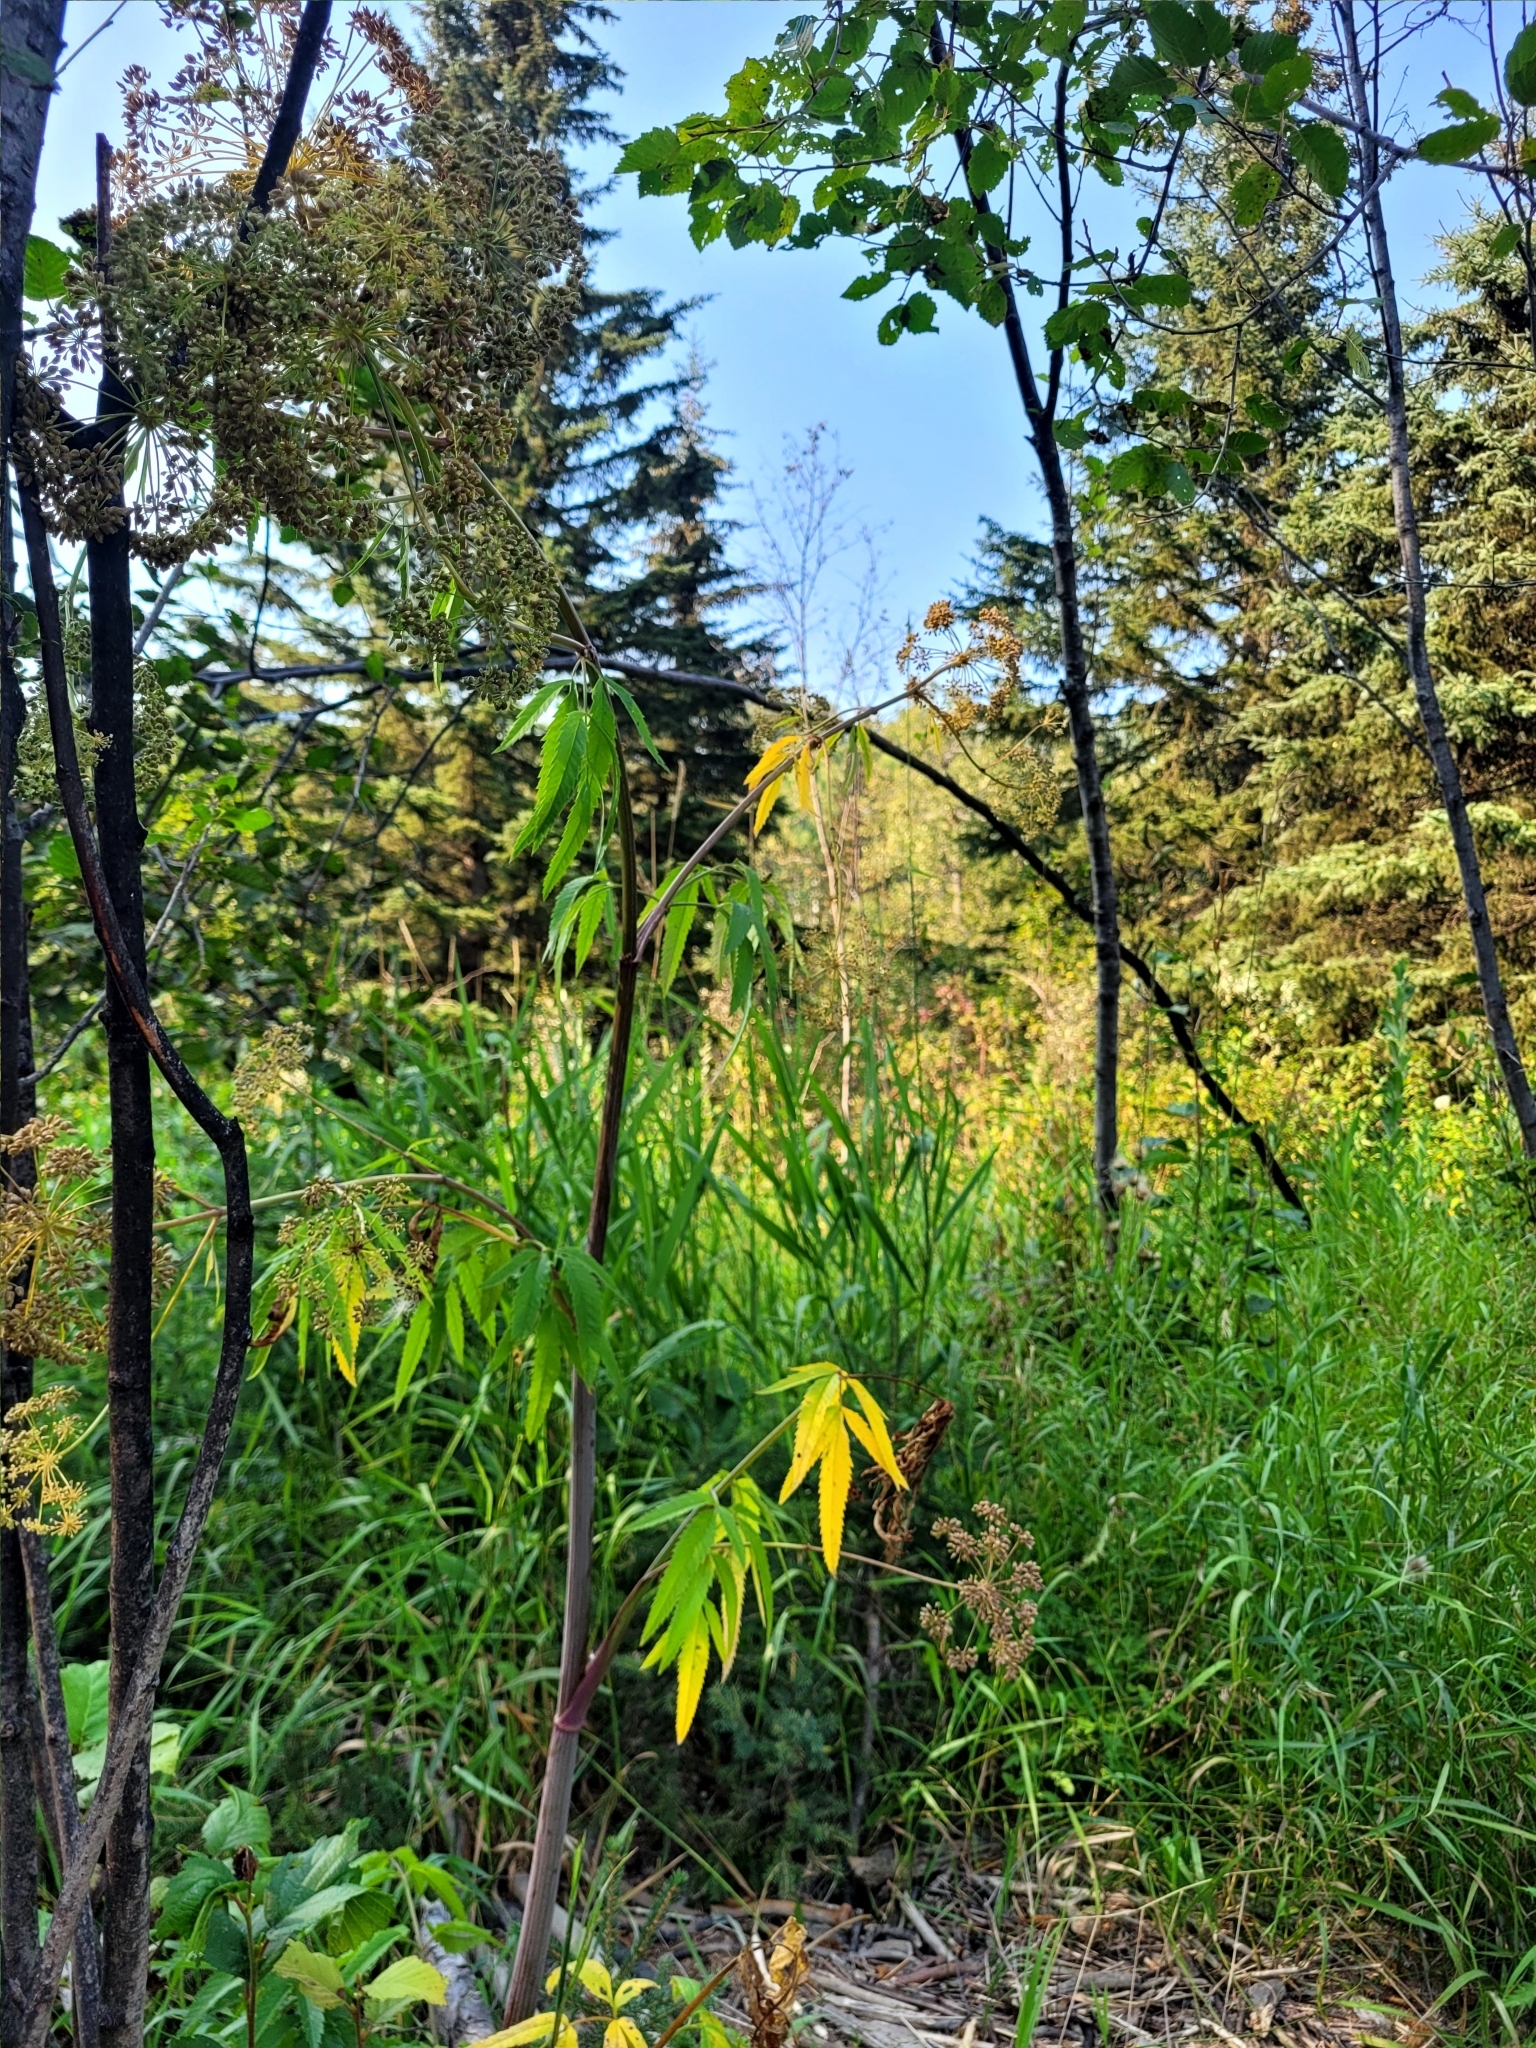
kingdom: Plantae
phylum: Tracheophyta
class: Magnoliopsida
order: Apiales
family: Apiaceae
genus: Cicuta
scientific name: Cicuta maculata
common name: Spotted cowbane
